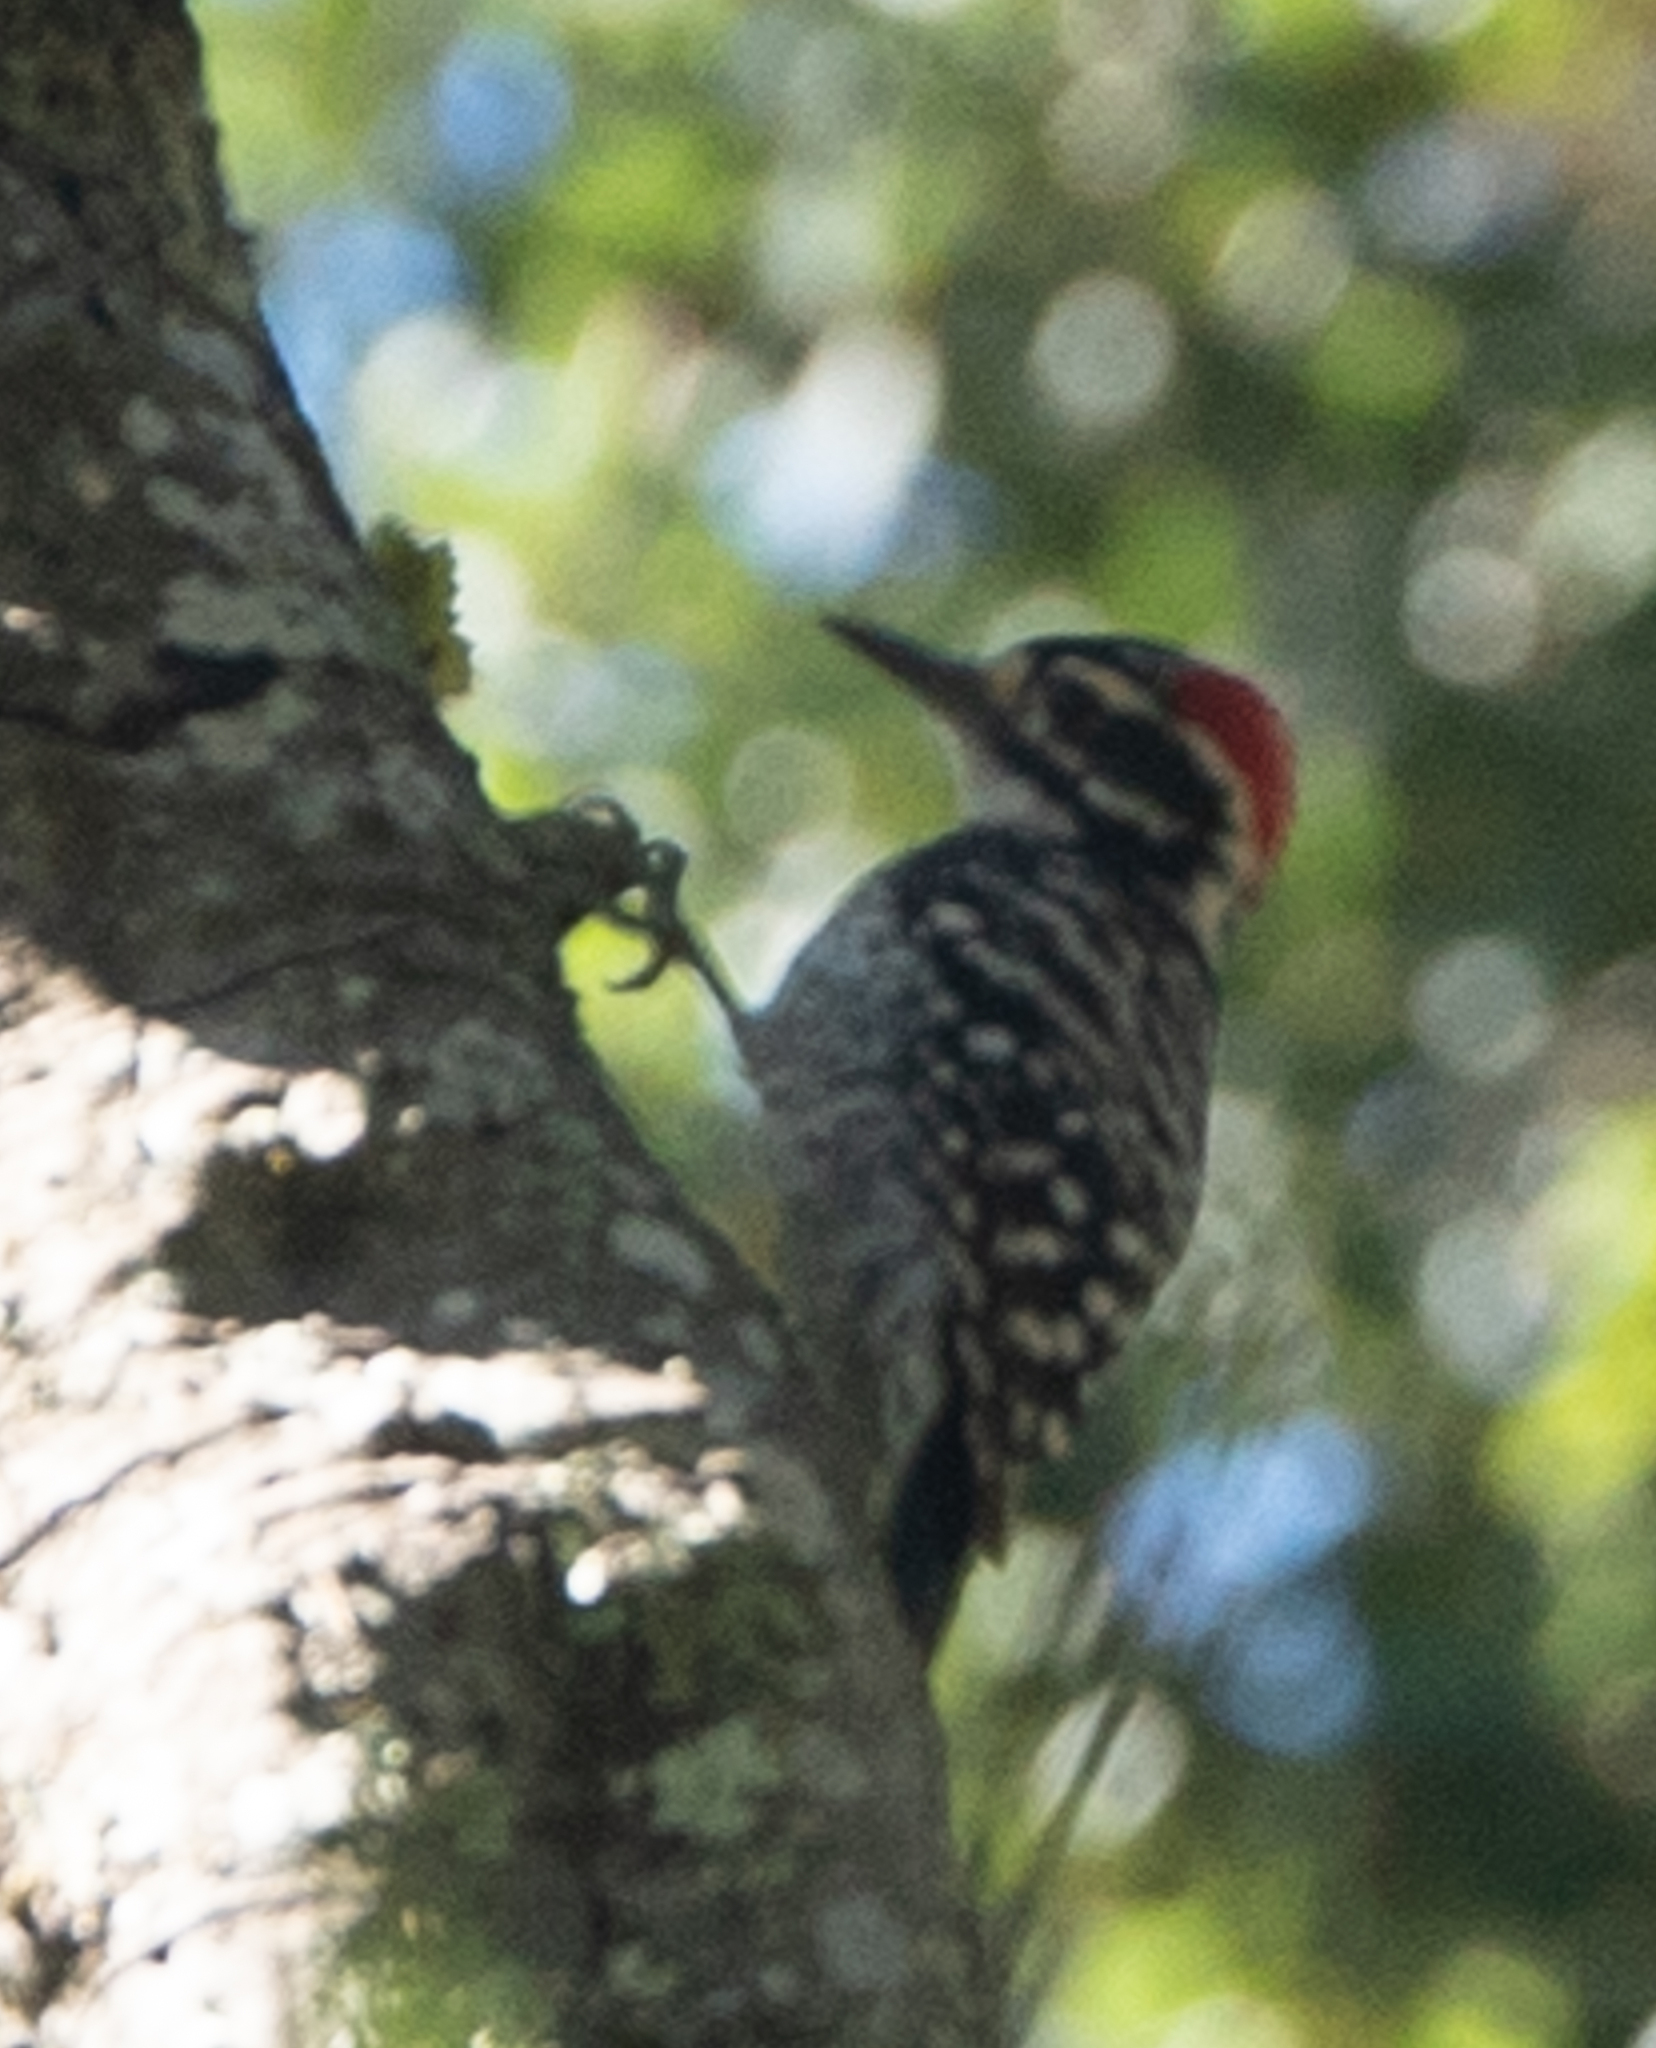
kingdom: Animalia
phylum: Chordata
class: Aves
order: Piciformes
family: Picidae
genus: Dryobates
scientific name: Dryobates nuttallii
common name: Nuttall's woodpecker
